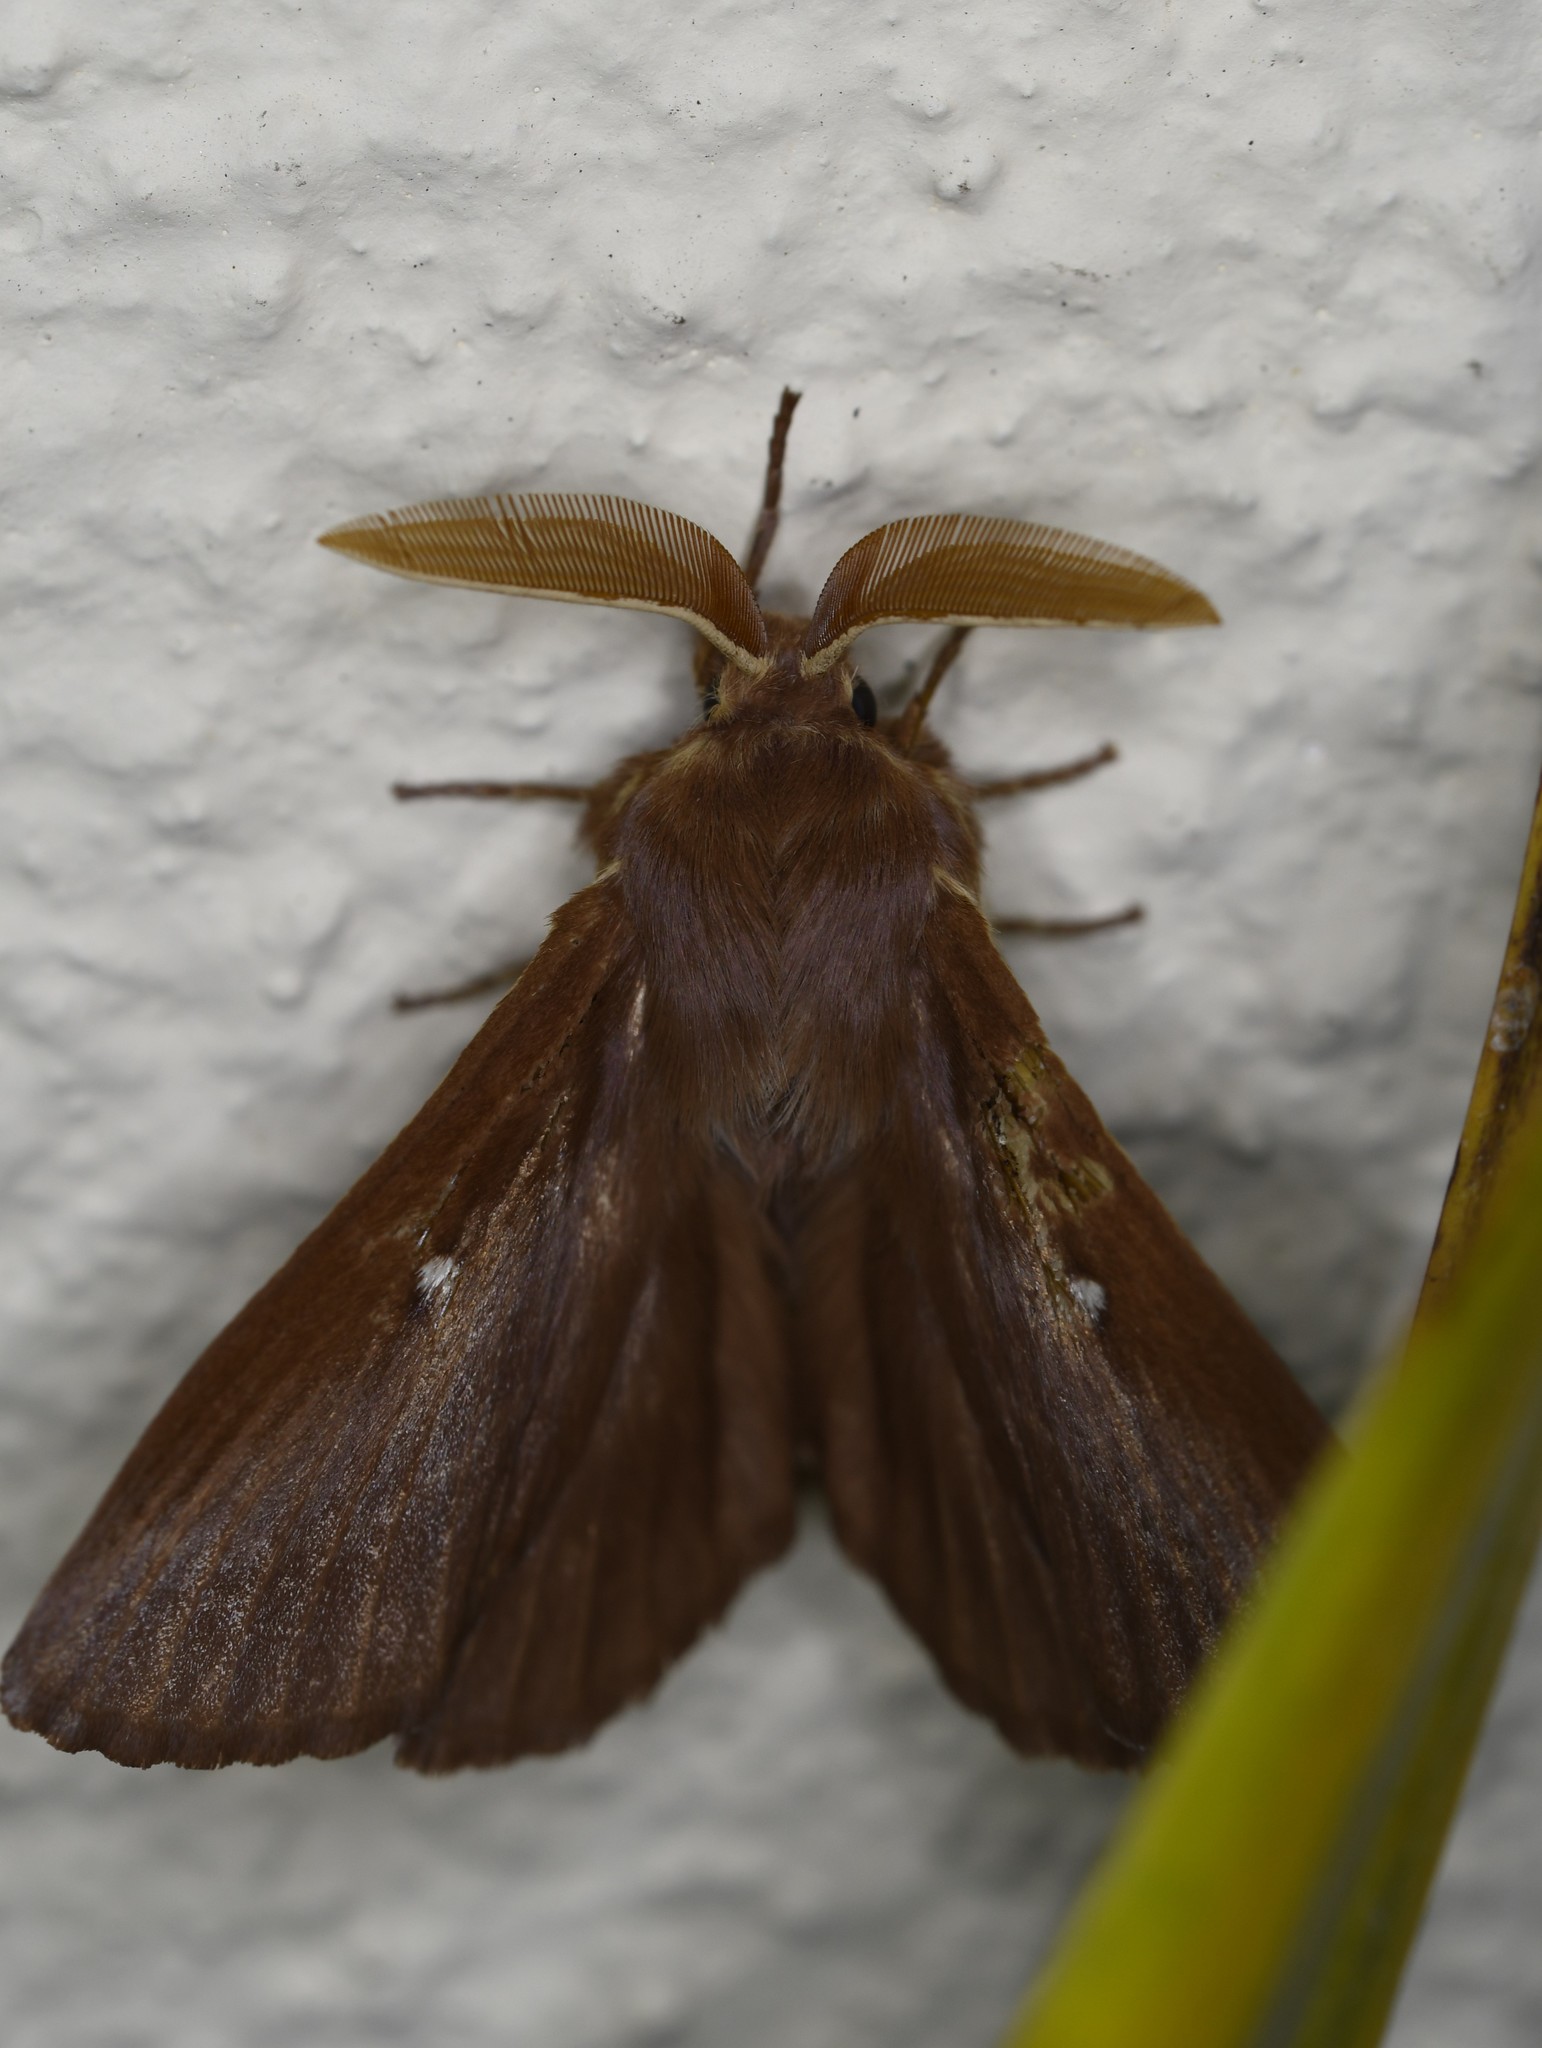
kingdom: Animalia
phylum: Arthropoda
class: Insecta
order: Lepidoptera
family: Lasiocampidae
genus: Lasiocampa
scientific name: Lasiocampa trifolii
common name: Grass eggar
